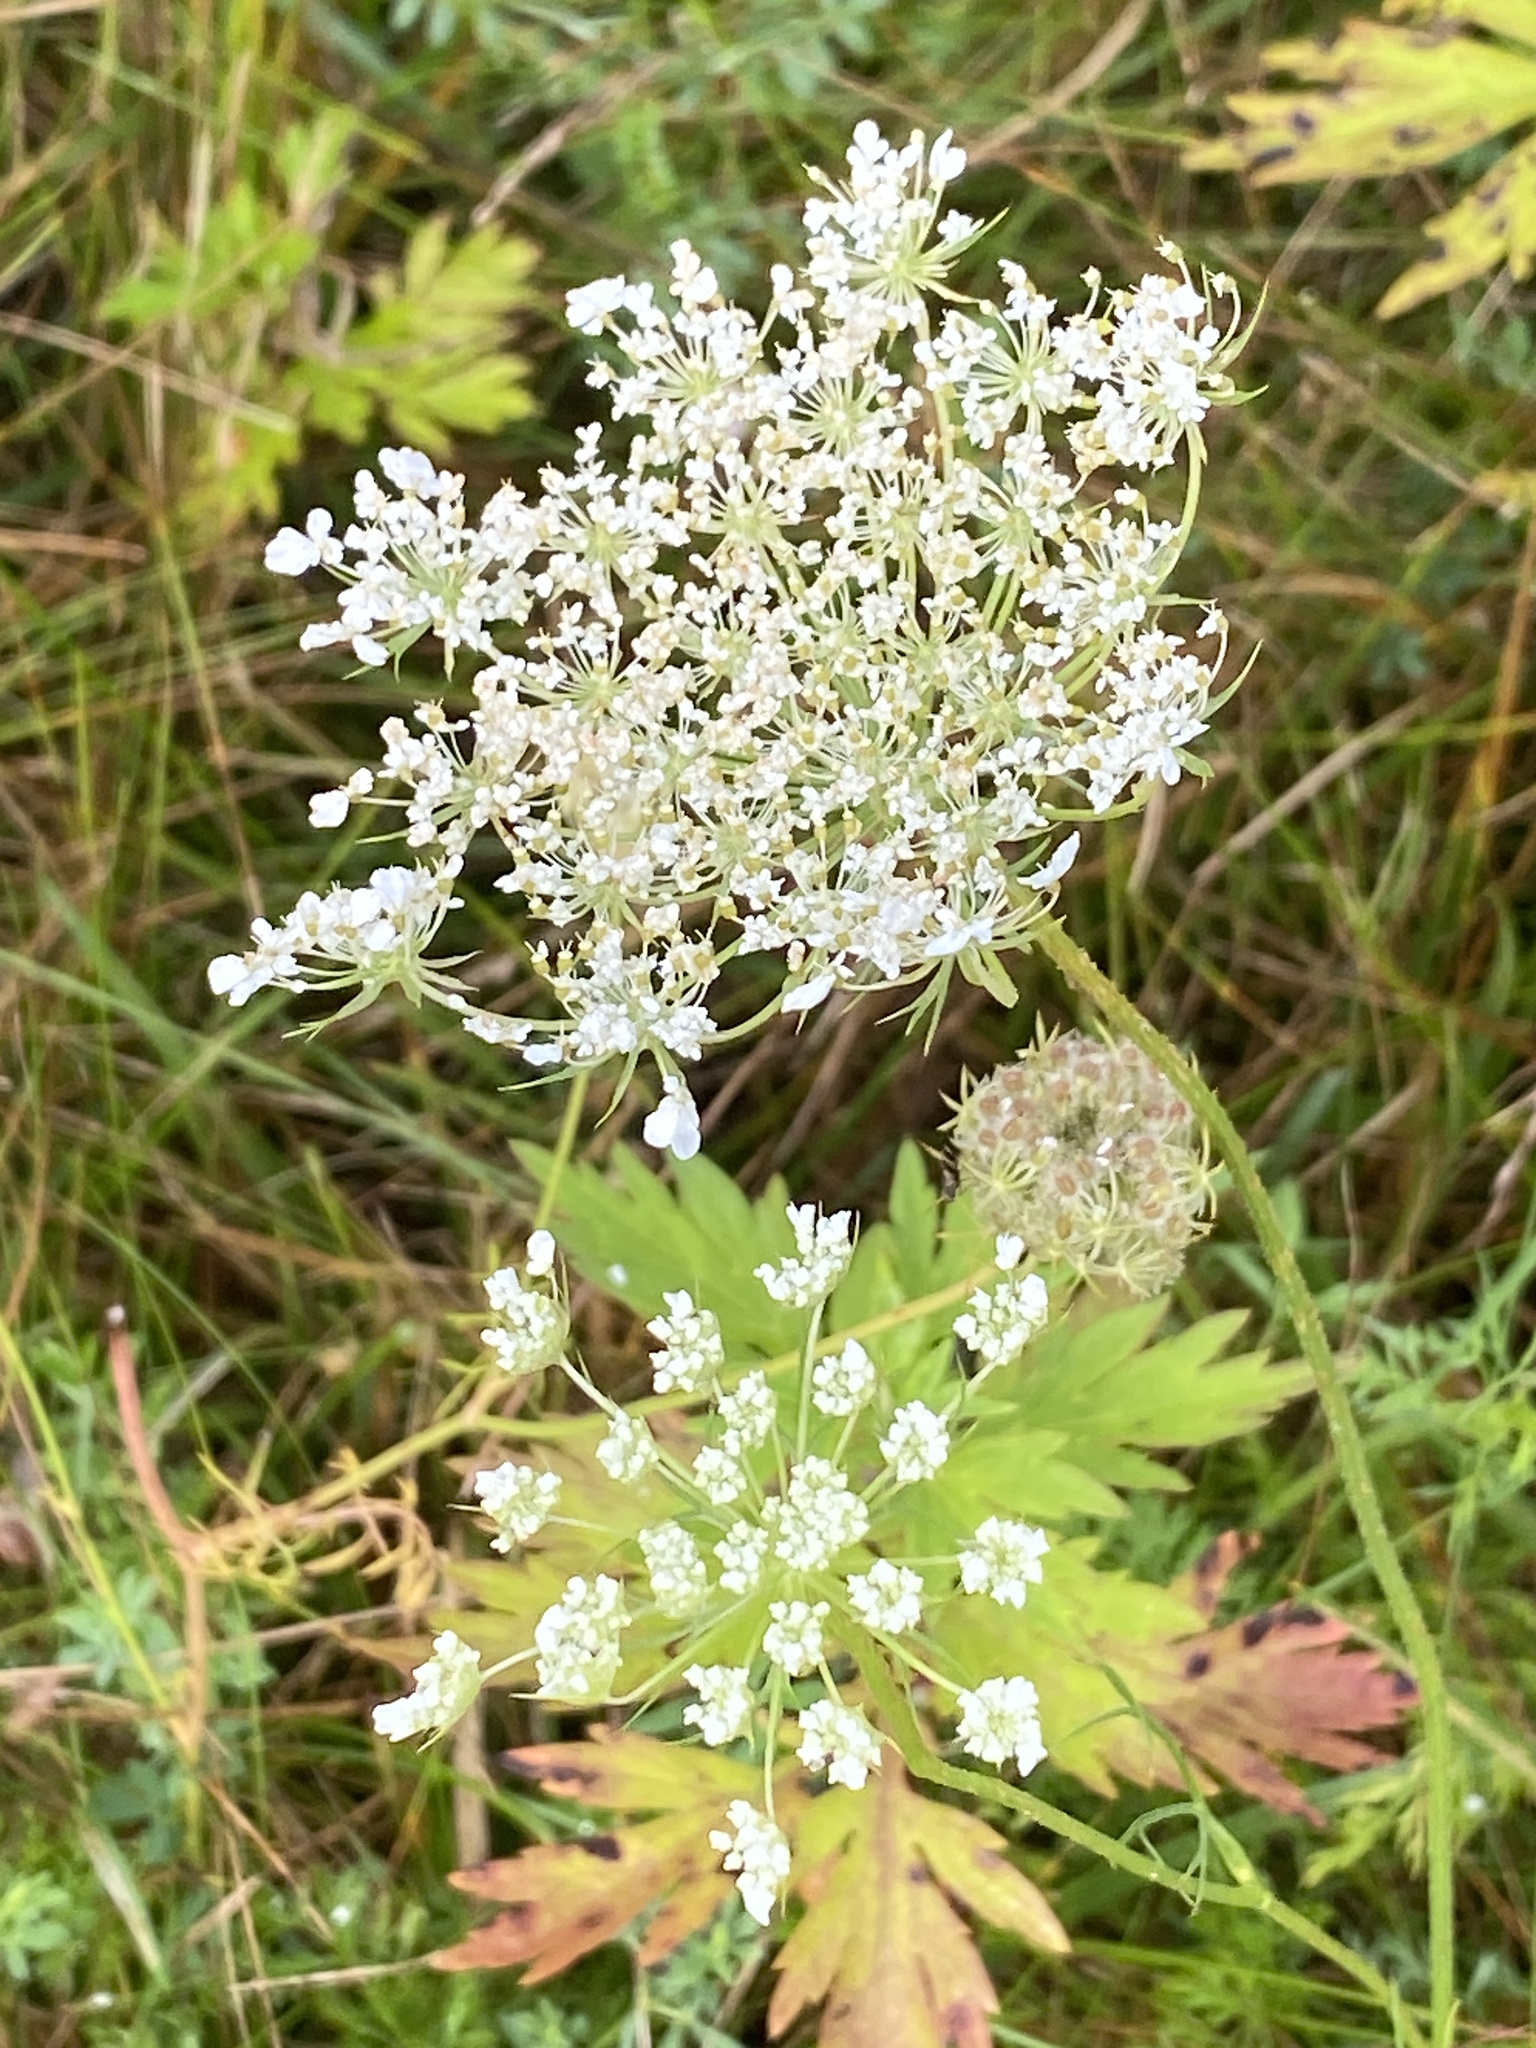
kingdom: Plantae
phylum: Tracheophyta
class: Magnoliopsida
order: Apiales
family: Apiaceae
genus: Daucus
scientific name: Daucus carota
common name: Wild carrot
